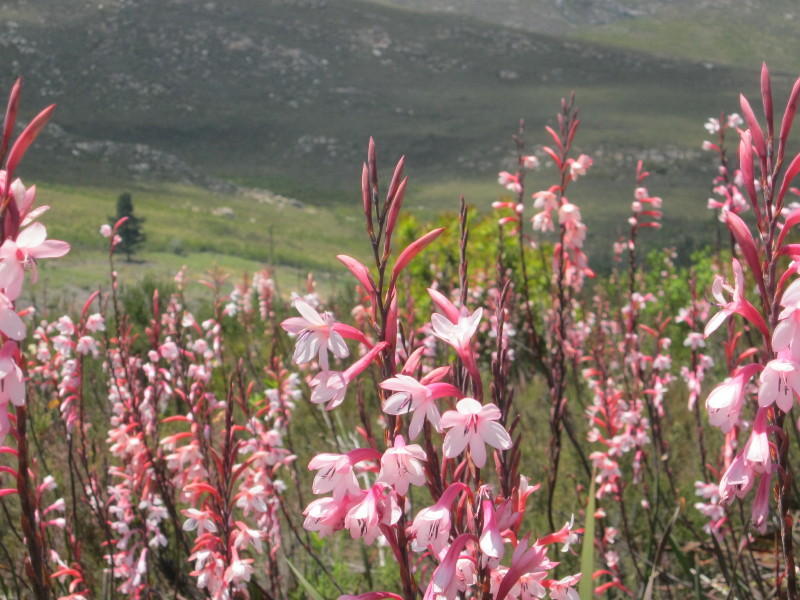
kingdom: Plantae
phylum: Tracheophyta
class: Liliopsida
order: Asparagales
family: Iridaceae
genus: Watsonia
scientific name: Watsonia fourcadei
